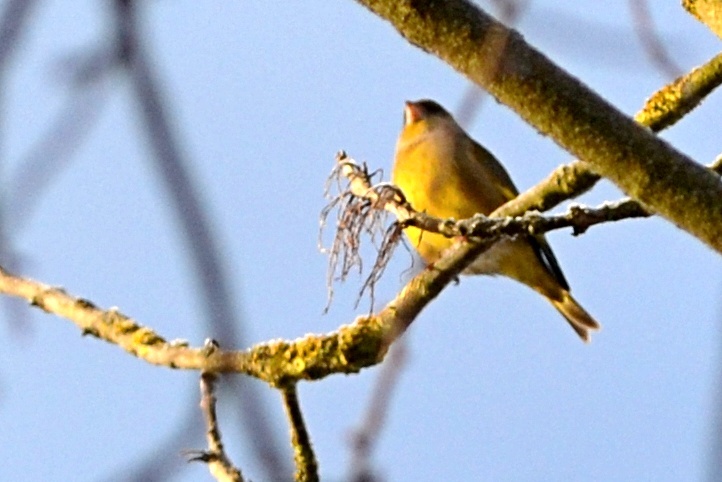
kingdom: Plantae
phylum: Tracheophyta
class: Liliopsida
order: Poales
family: Poaceae
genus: Chloris
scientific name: Chloris chloris
